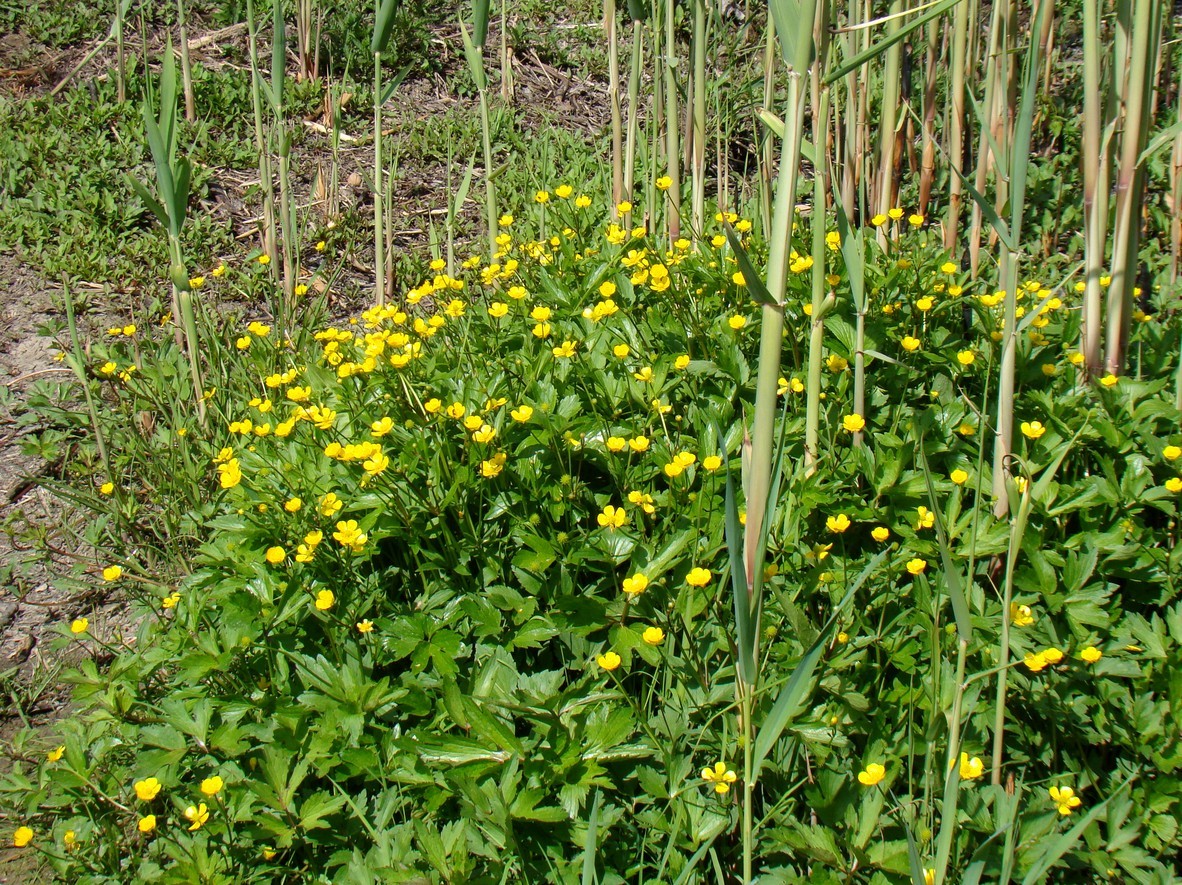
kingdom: Plantae
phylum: Tracheophyta
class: Magnoliopsida
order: Ranunculales
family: Ranunculaceae
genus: Ranunculus
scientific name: Ranunculus repens
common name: Creeping buttercup
